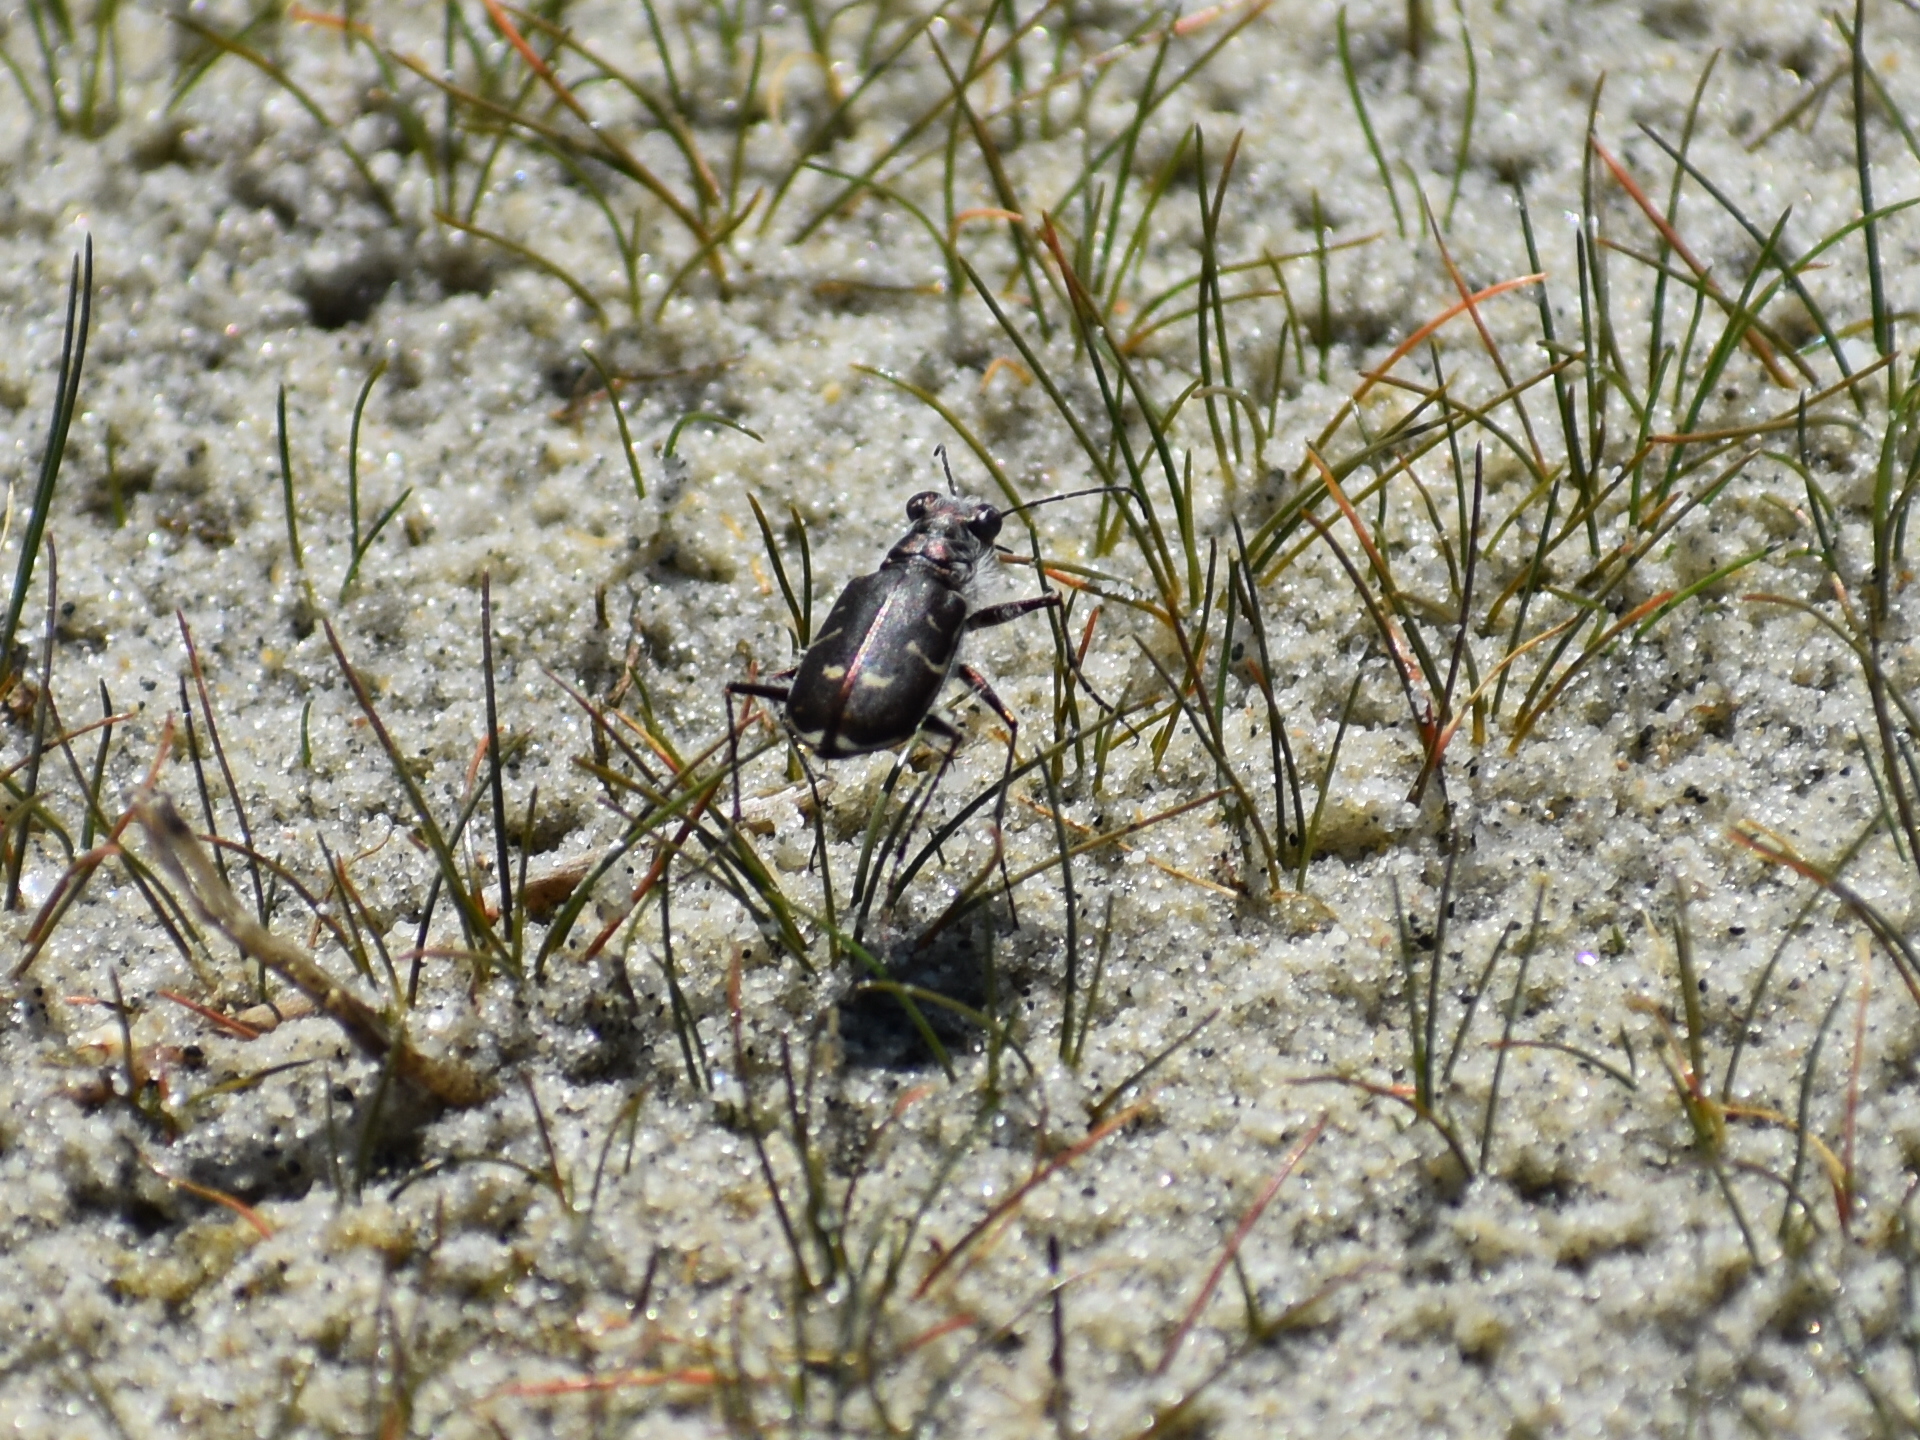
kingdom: Animalia
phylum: Arthropoda
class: Insecta
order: Coleoptera
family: Carabidae
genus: Cicindela
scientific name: Cicindela hirticollis
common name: Hairy-necked tiger beetle
